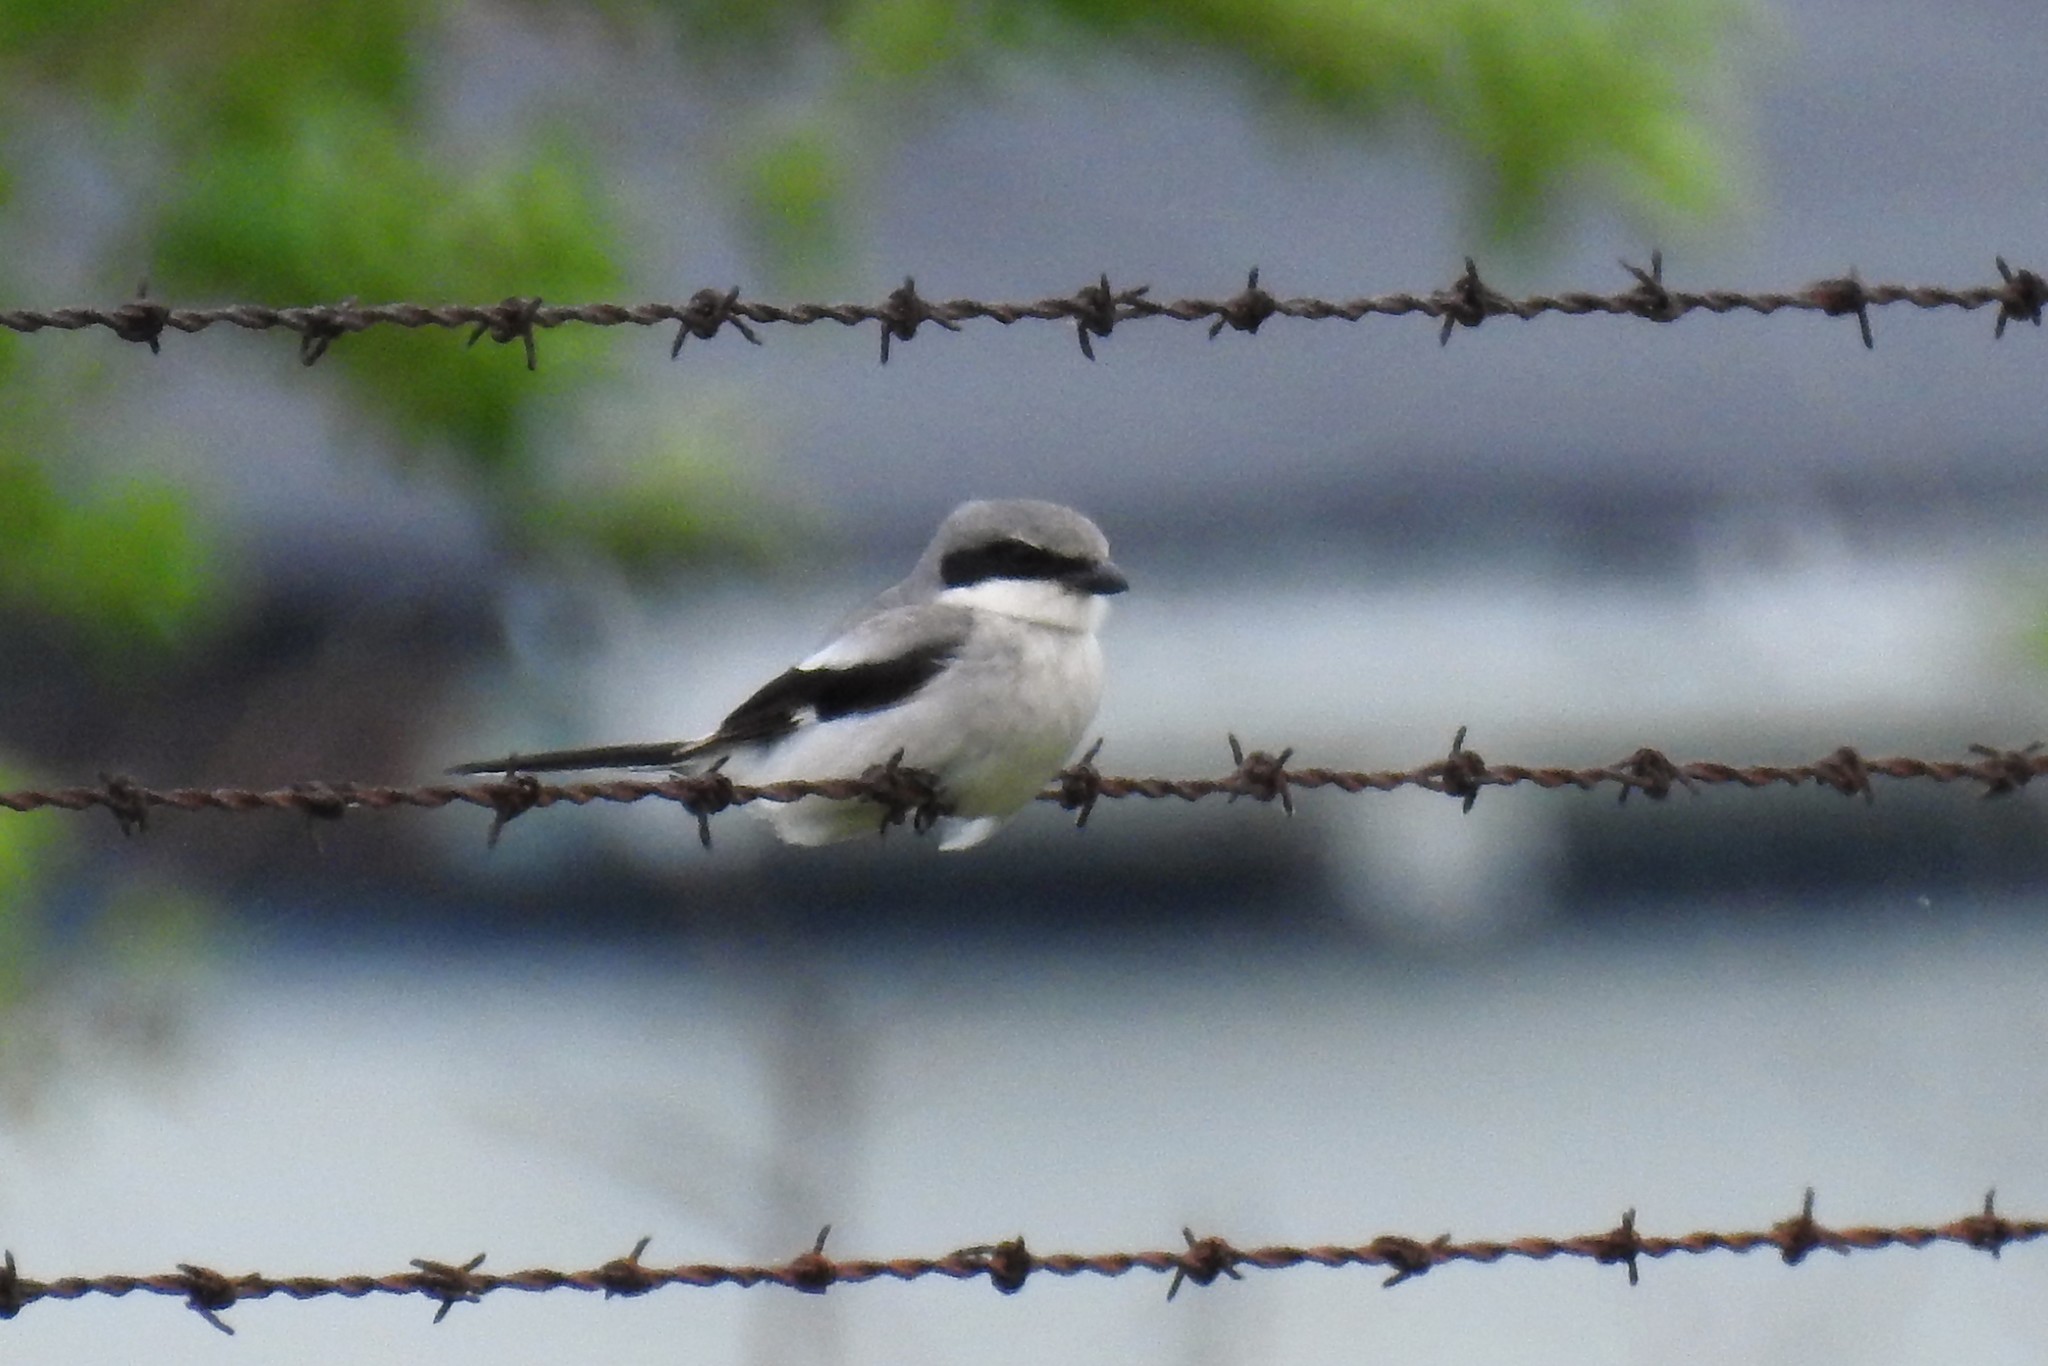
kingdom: Animalia
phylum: Chordata
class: Aves
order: Passeriformes
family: Laniidae
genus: Lanius
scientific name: Lanius ludovicianus
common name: Loggerhead shrike
